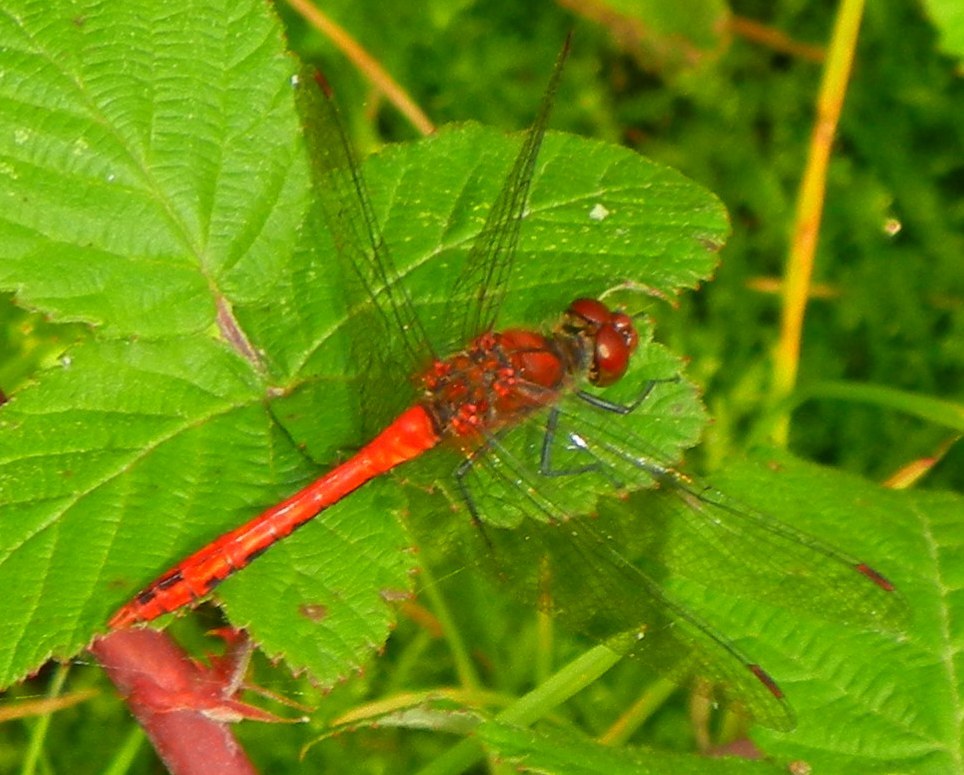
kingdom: Animalia
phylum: Arthropoda
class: Insecta
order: Odonata
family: Libellulidae
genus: Sympetrum
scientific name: Sympetrum sanguineum
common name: Ruddy darter
